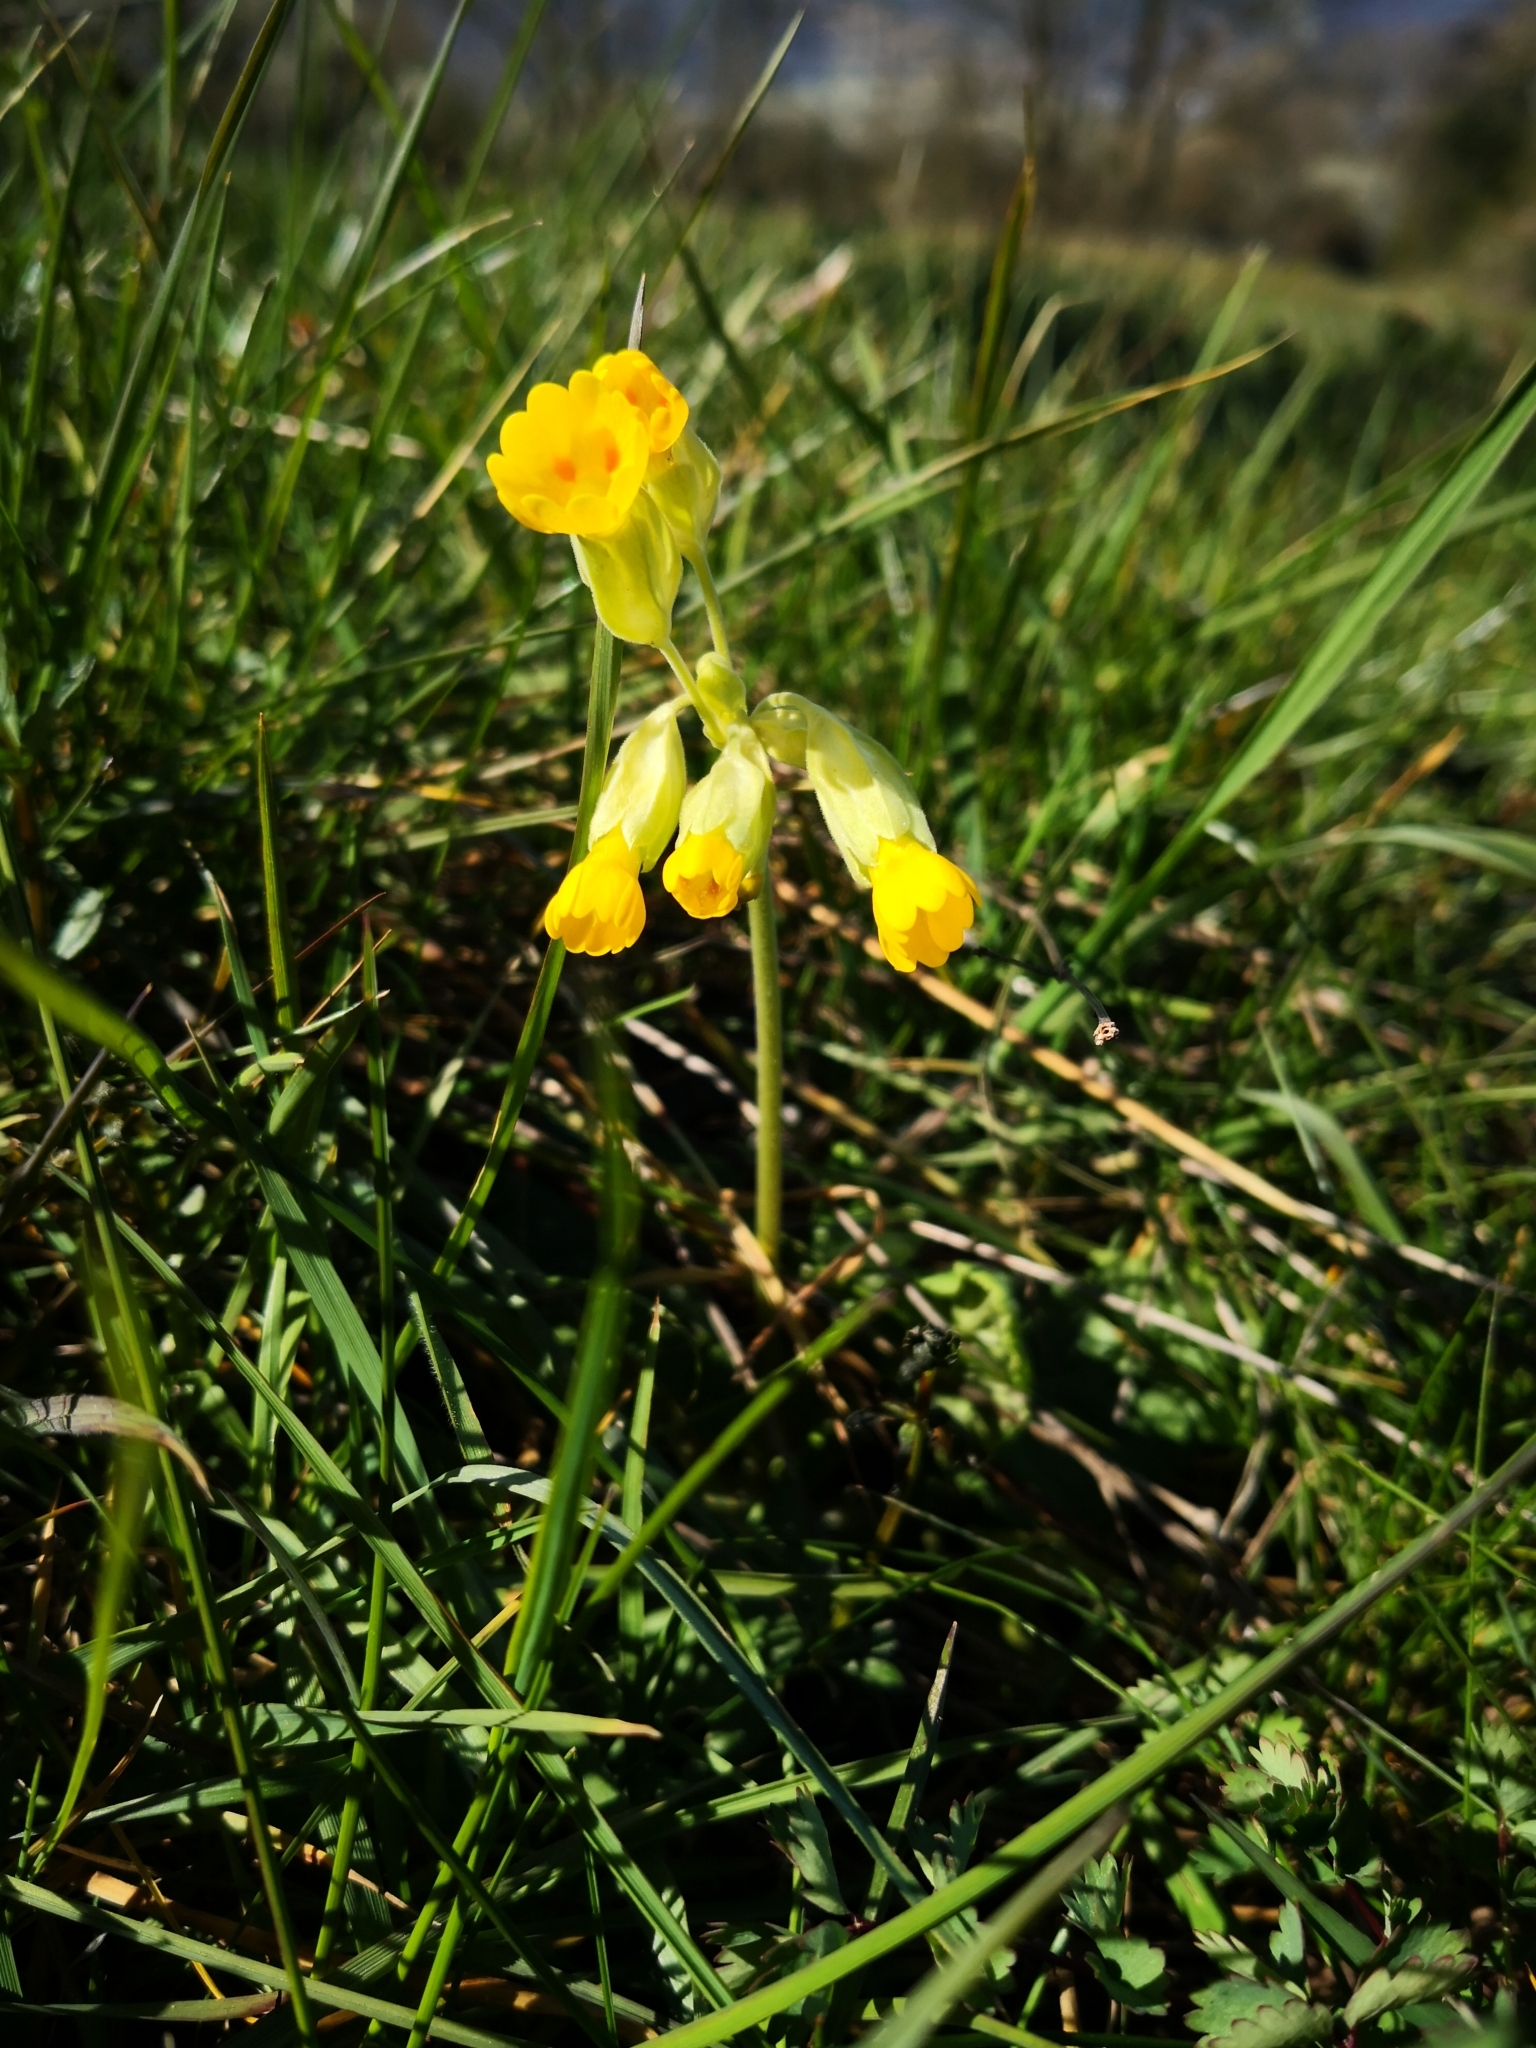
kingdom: Plantae
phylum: Tracheophyta
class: Magnoliopsida
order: Ericales
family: Primulaceae
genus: Primula
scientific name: Primula veris
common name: Cowslip
